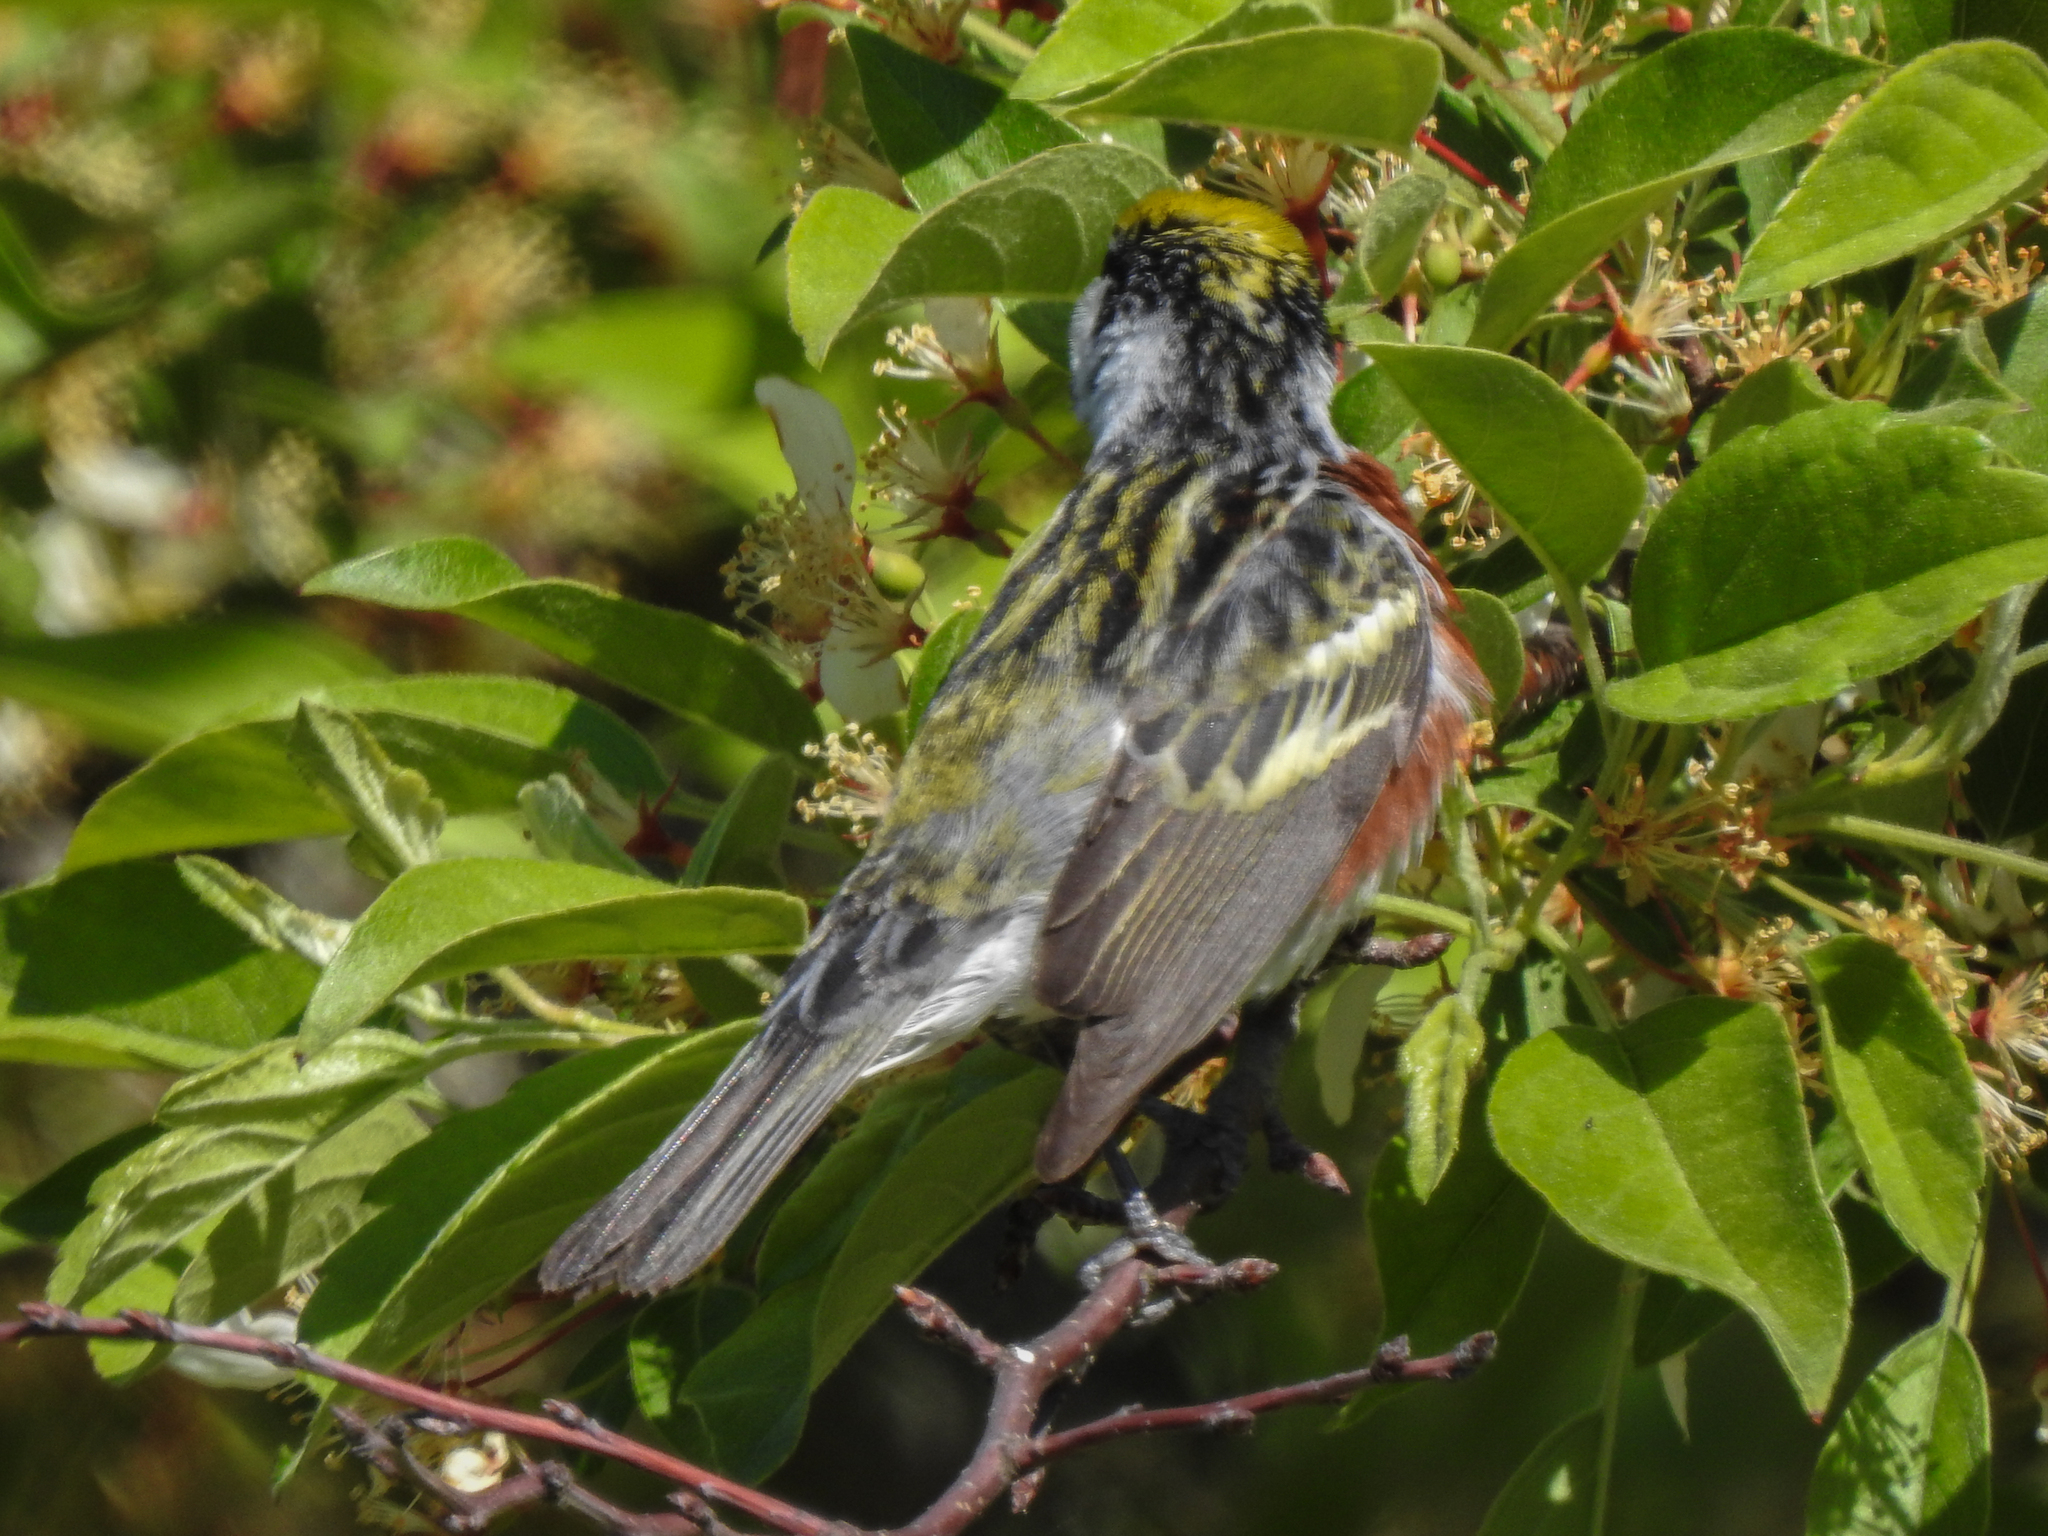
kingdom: Animalia
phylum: Chordata
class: Aves
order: Passeriformes
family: Parulidae
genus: Setophaga
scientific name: Setophaga pensylvanica
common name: Chestnut-sided warbler
